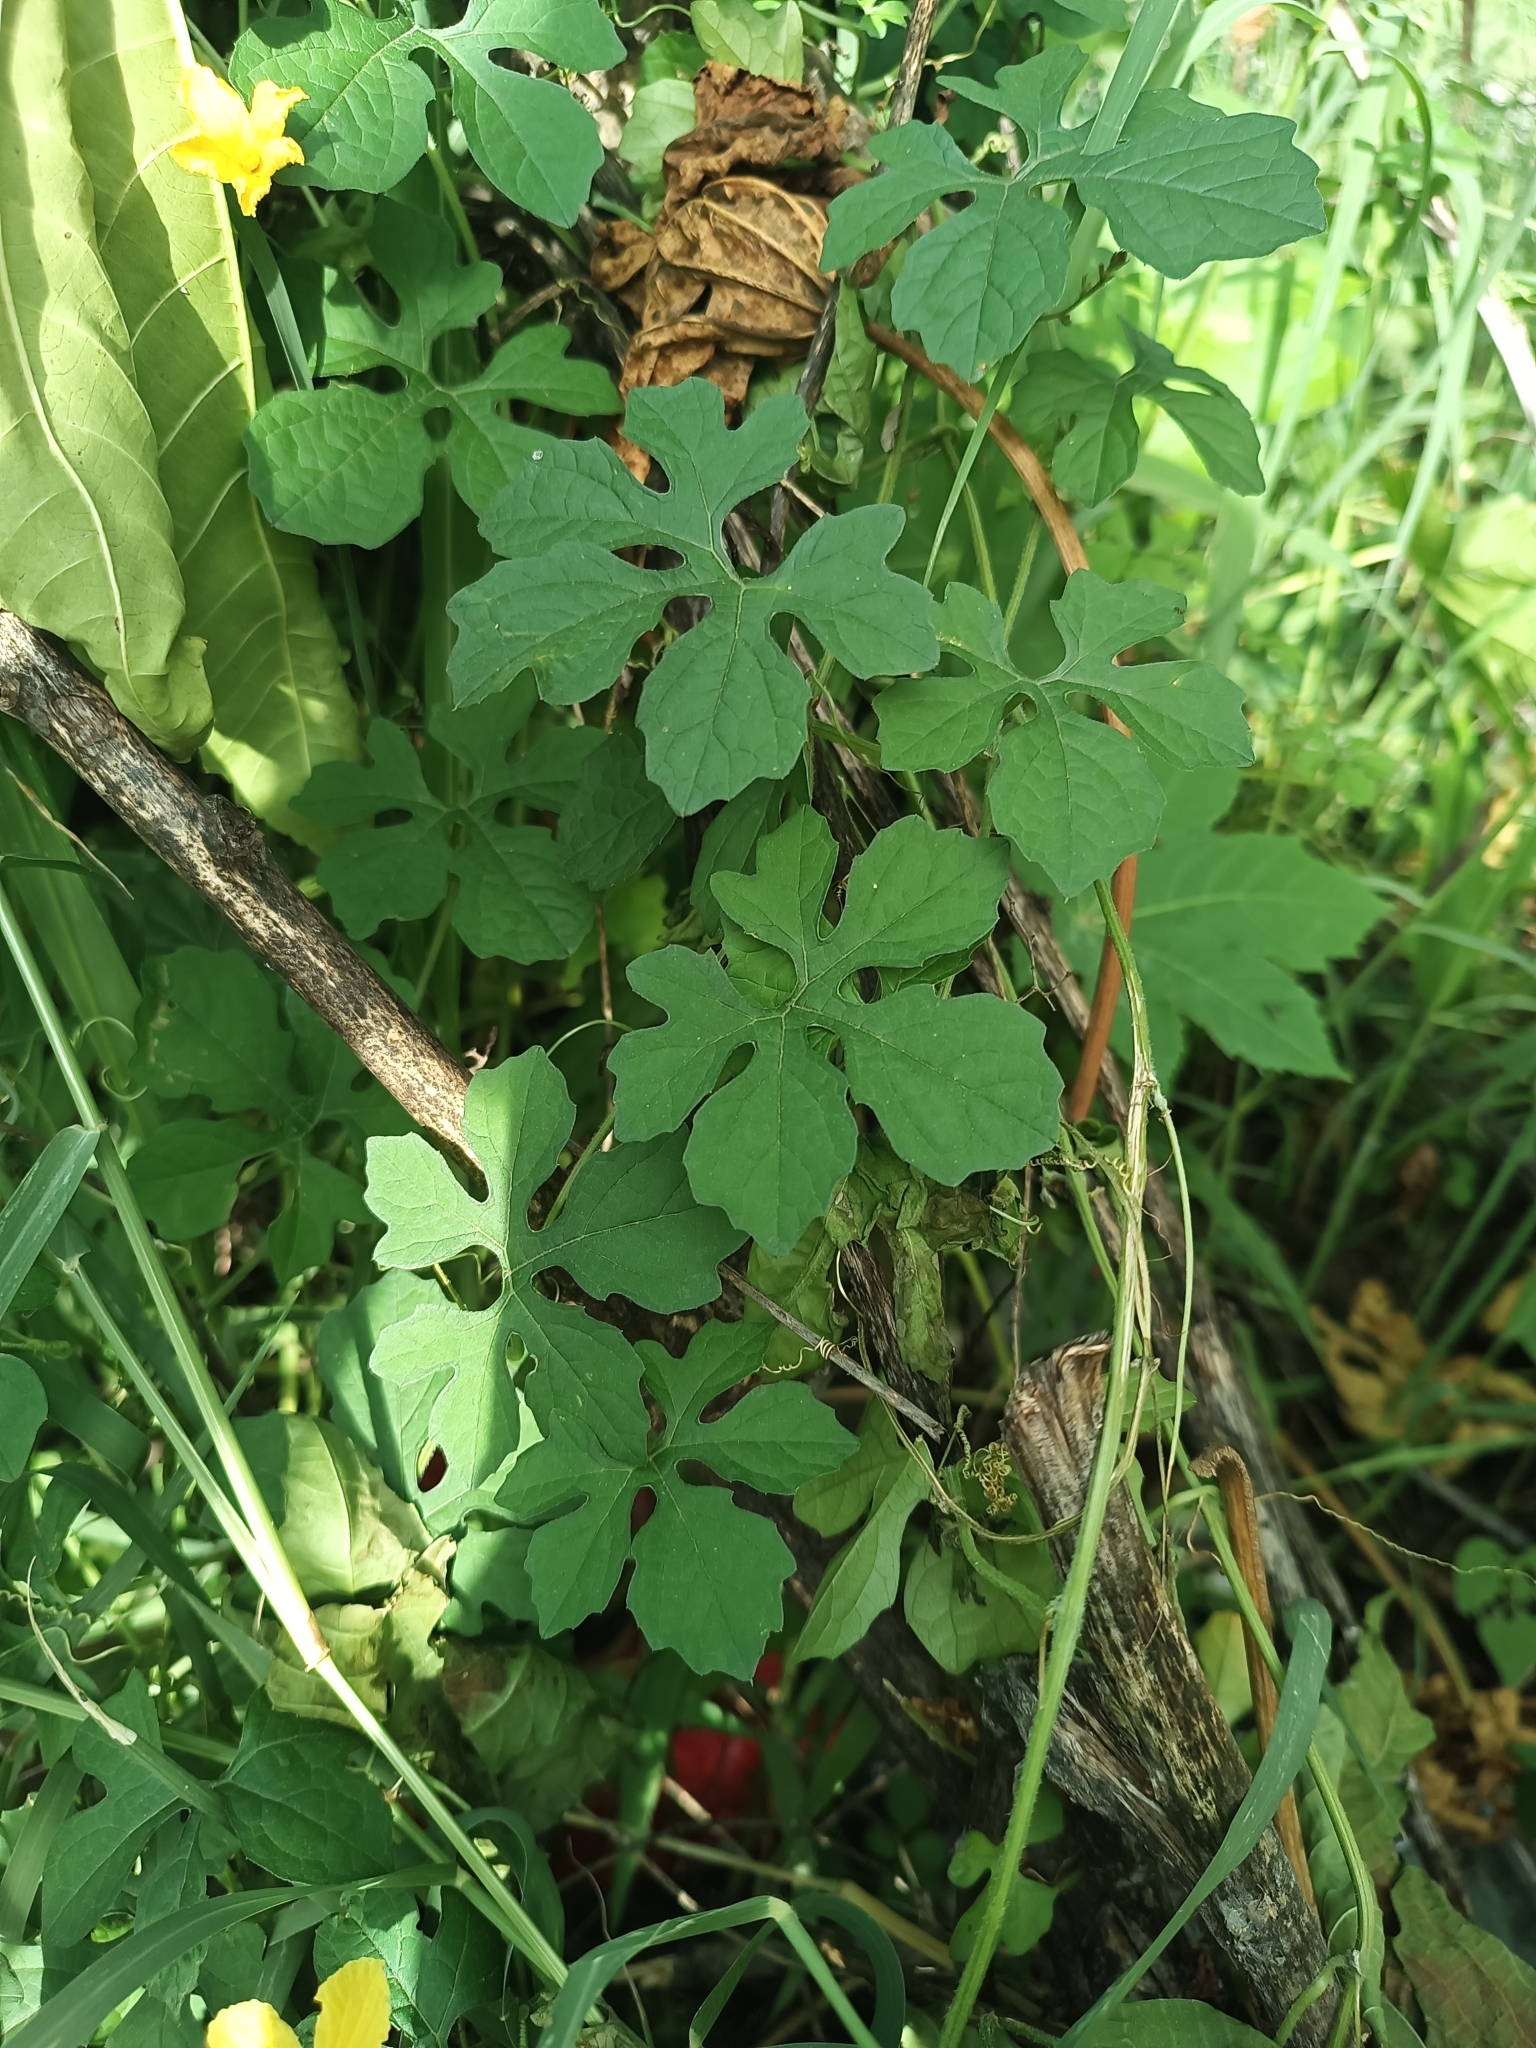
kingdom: Plantae
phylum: Tracheophyta
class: Magnoliopsida
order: Cucurbitales
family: Cucurbitaceae
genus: Momordica
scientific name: Momordica charantia
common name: Balsampear
